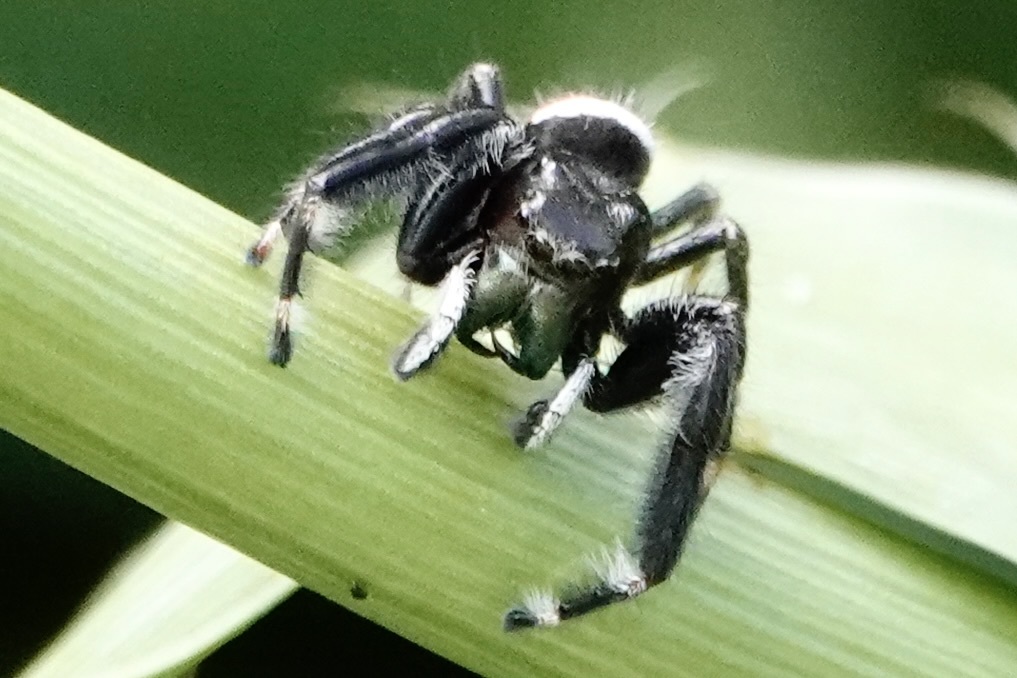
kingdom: Animalia
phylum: Arthropoda
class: Arachnida
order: Araneae
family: Salticidae
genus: Phidippus
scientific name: Phidippus clarus
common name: Brilliant jumping spider
